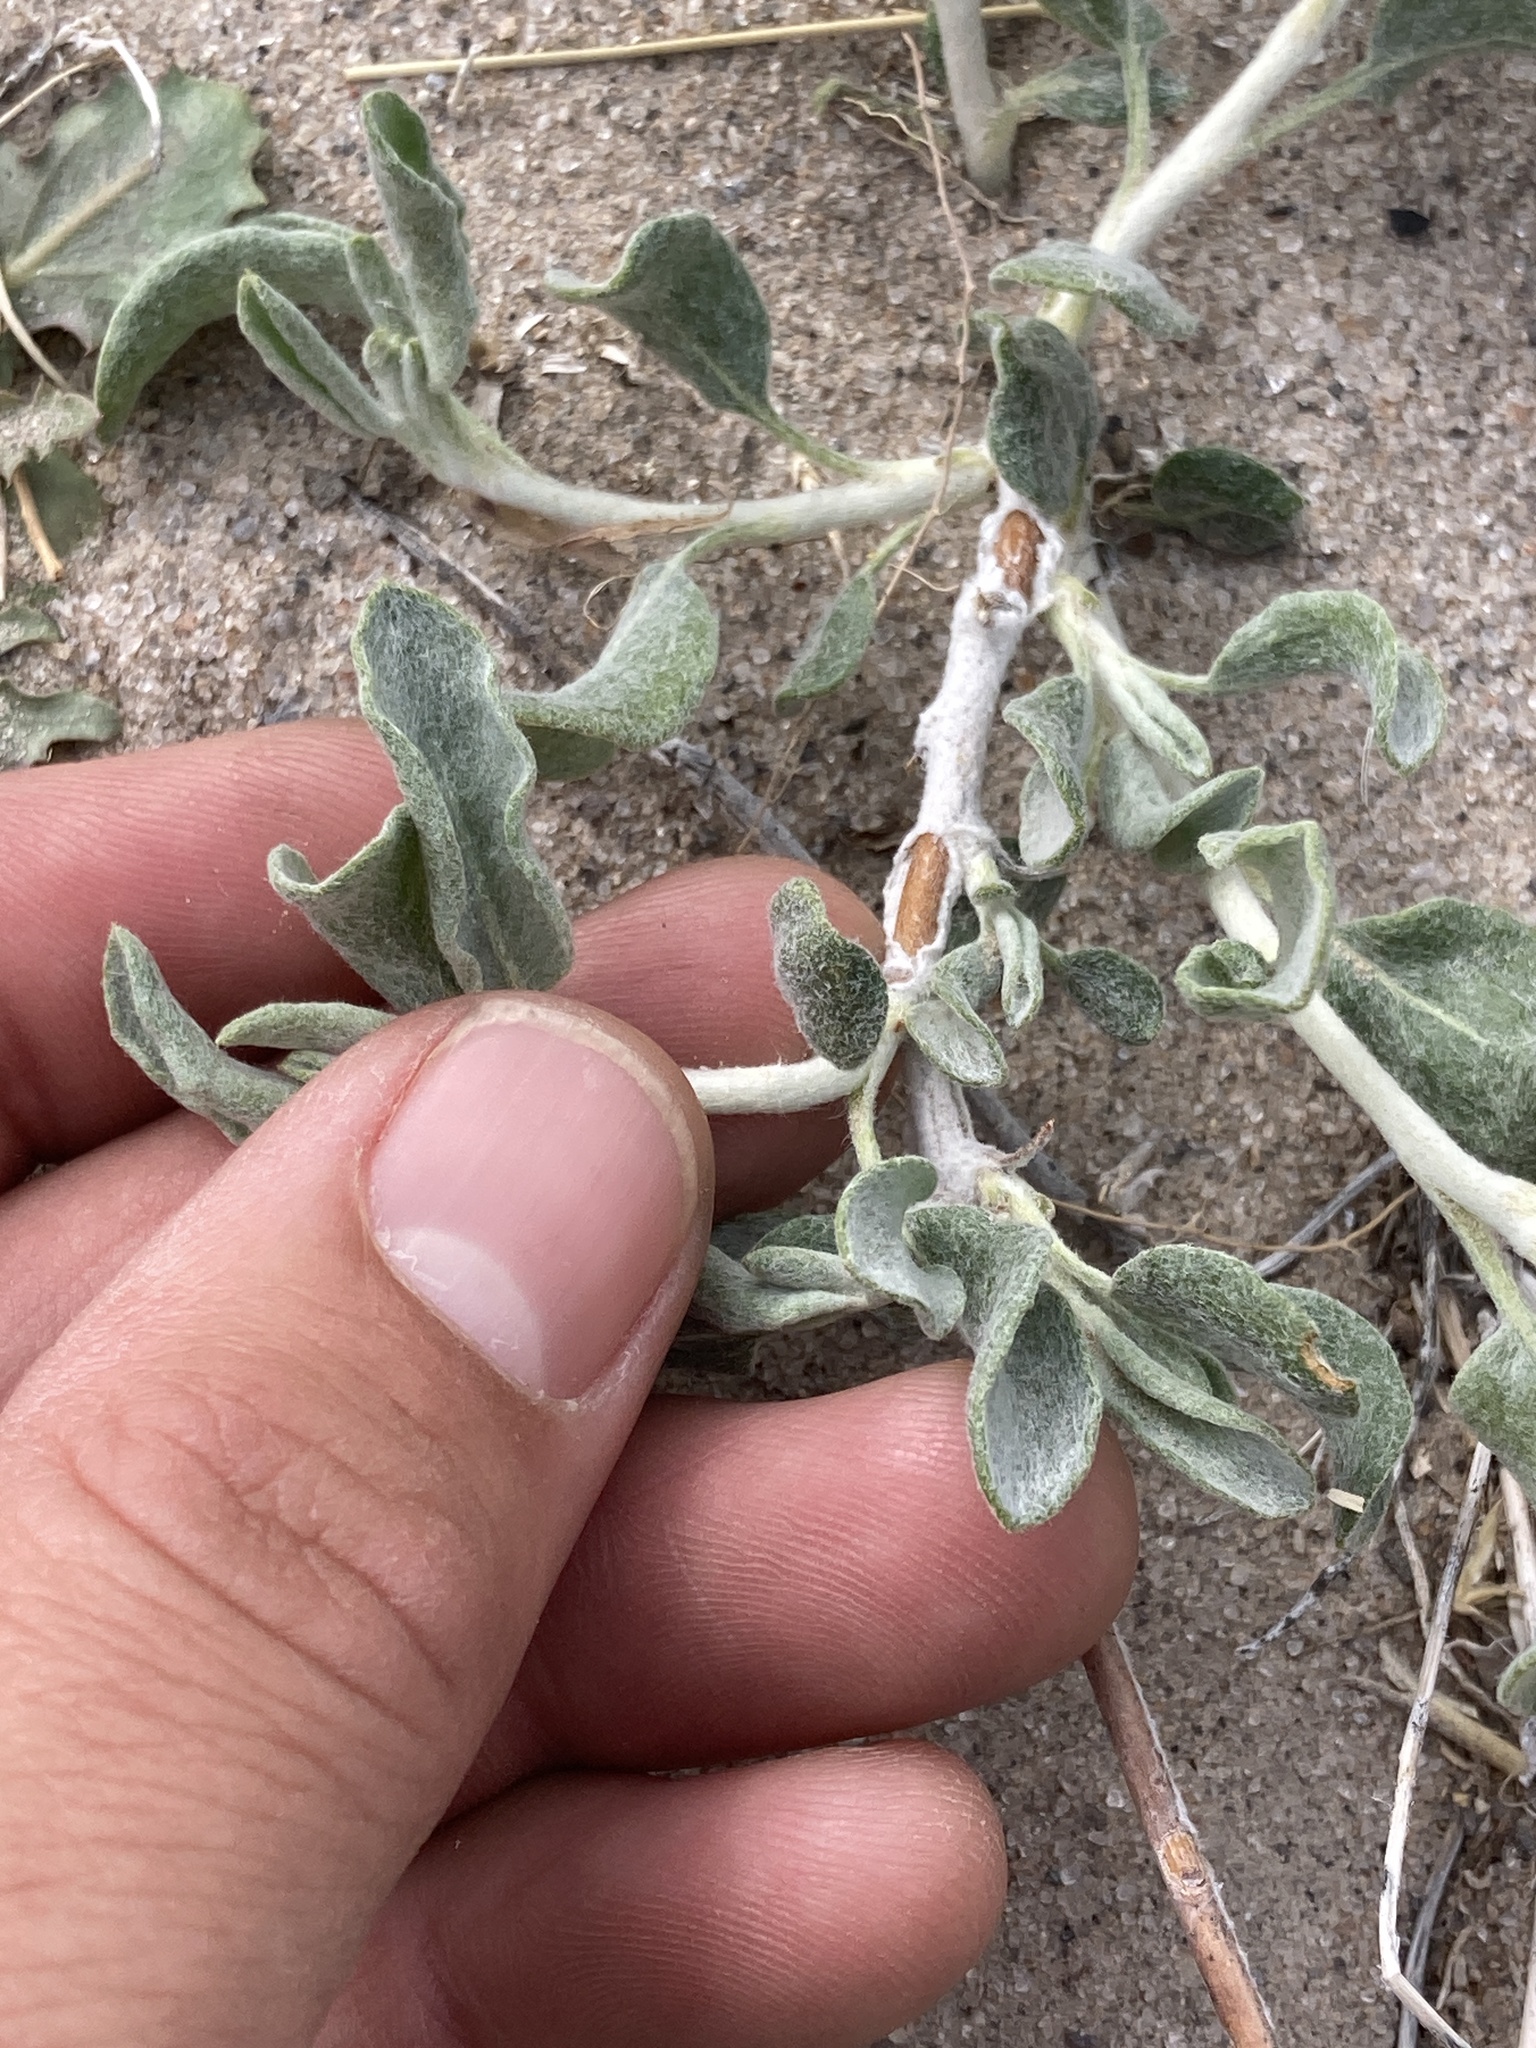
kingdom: Plantae
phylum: Tracheophyta
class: Magnoliopsida
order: Caryophyllales
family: Polygonaceae
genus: Eriogonum
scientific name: Eriogonum nummulare
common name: Kearney wild buckwheat
